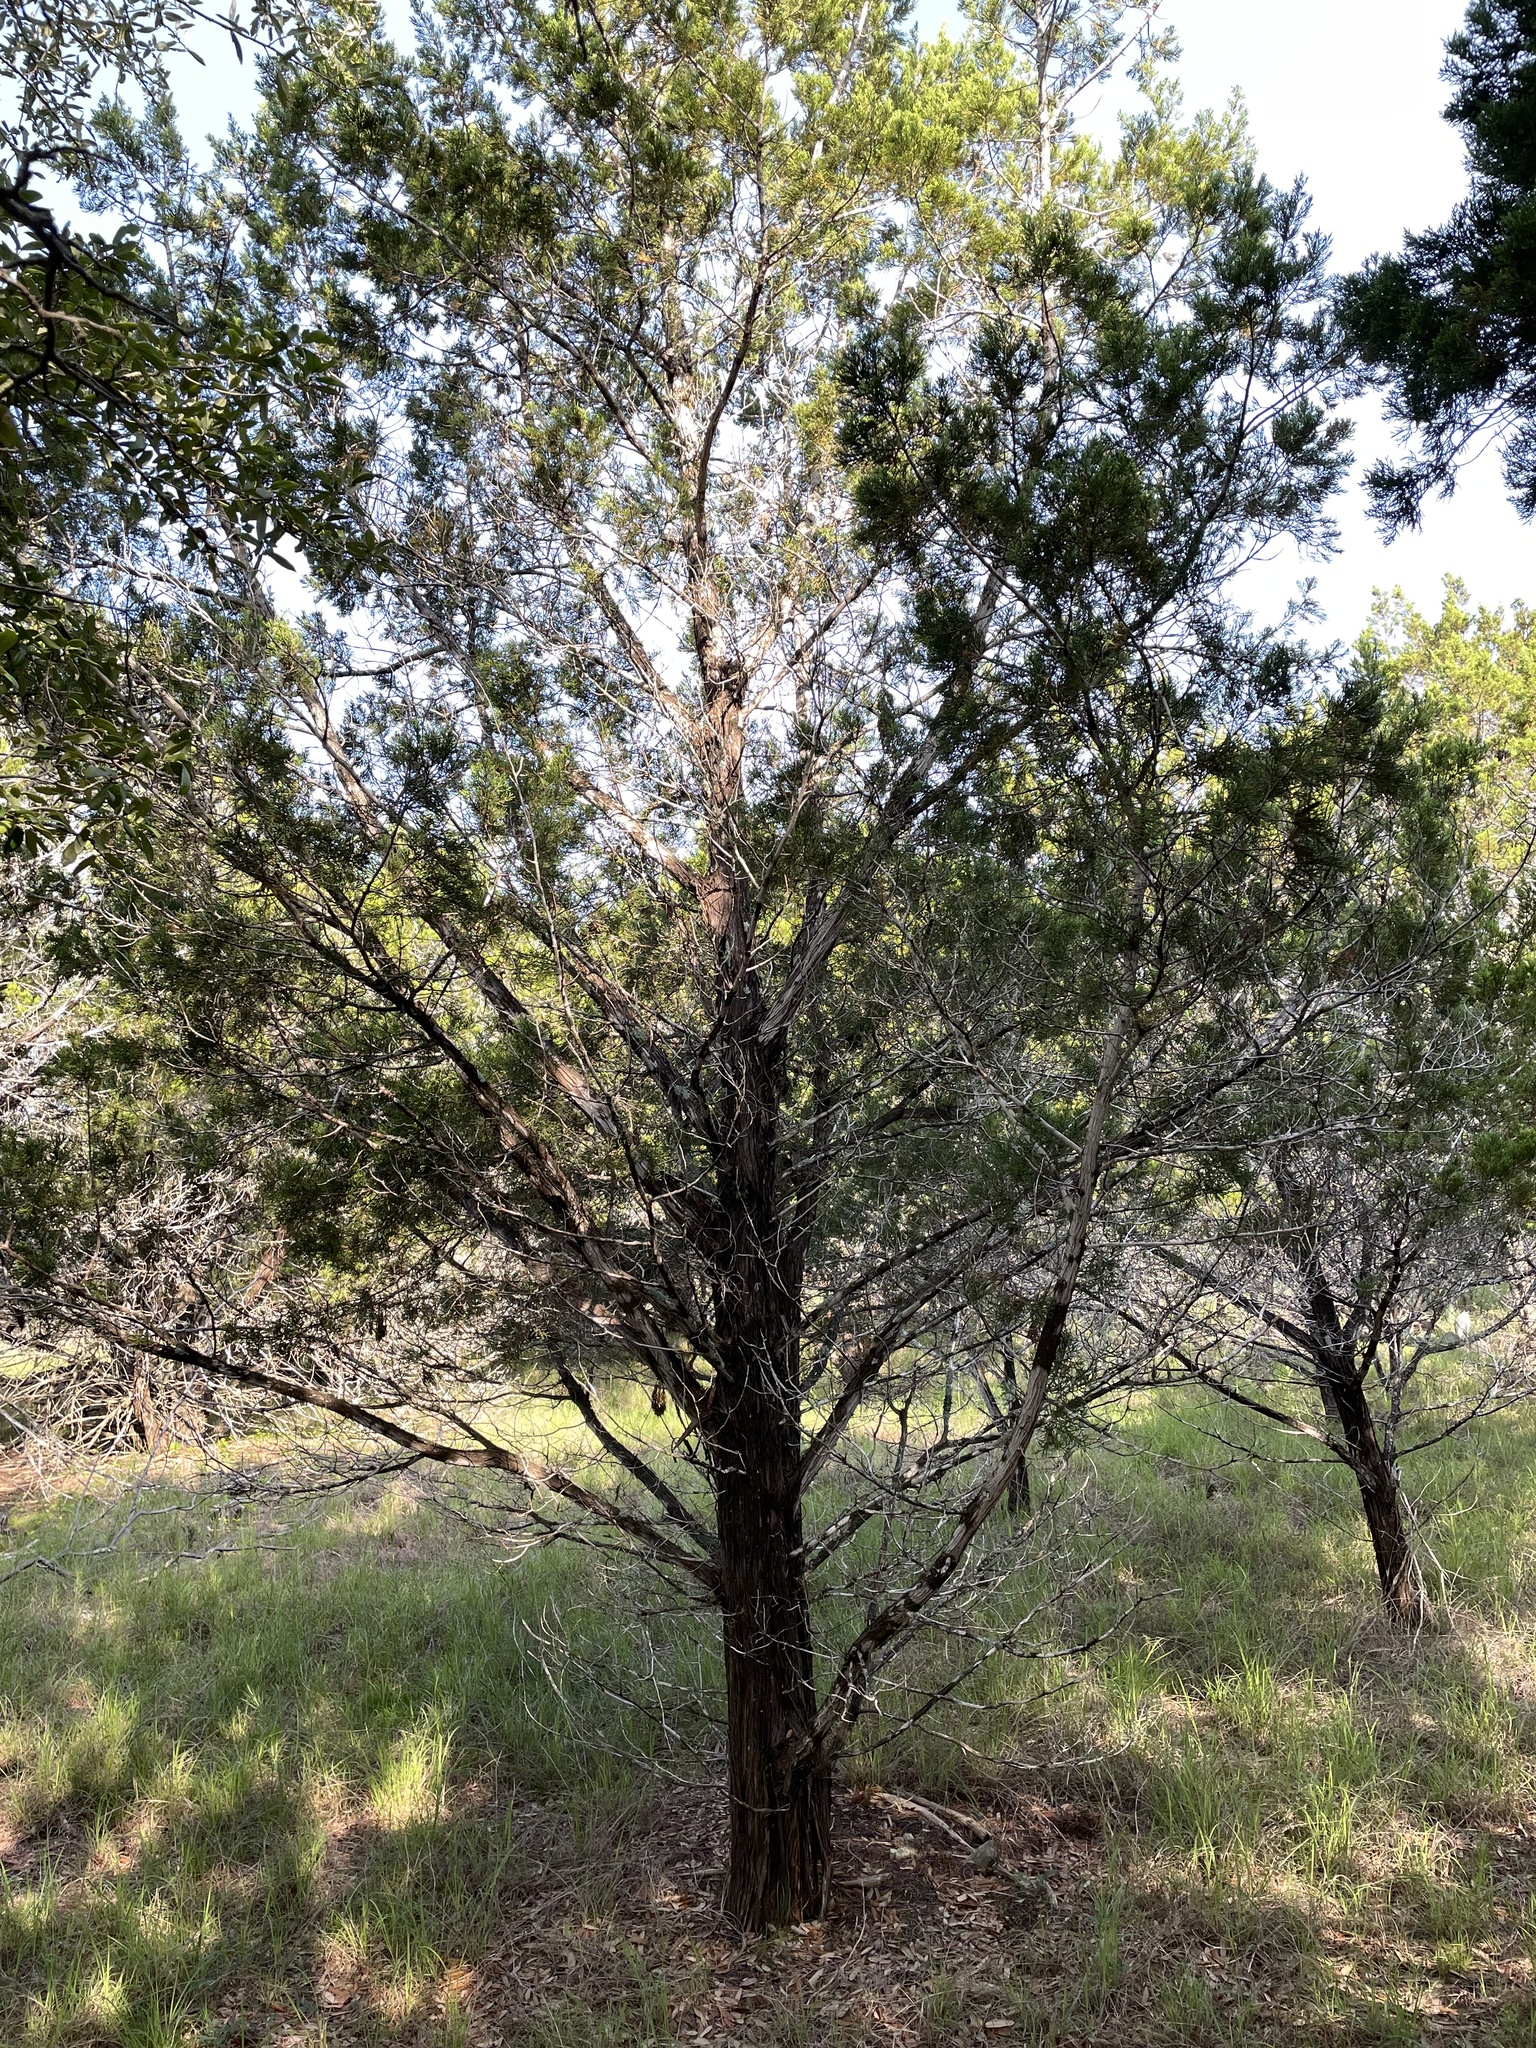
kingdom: Plantae
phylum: Tracheophyta
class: Pinopsida
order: Pinales
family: Cupressaceae
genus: Juniperus
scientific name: Juniperus ashei
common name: Mexican juniper
